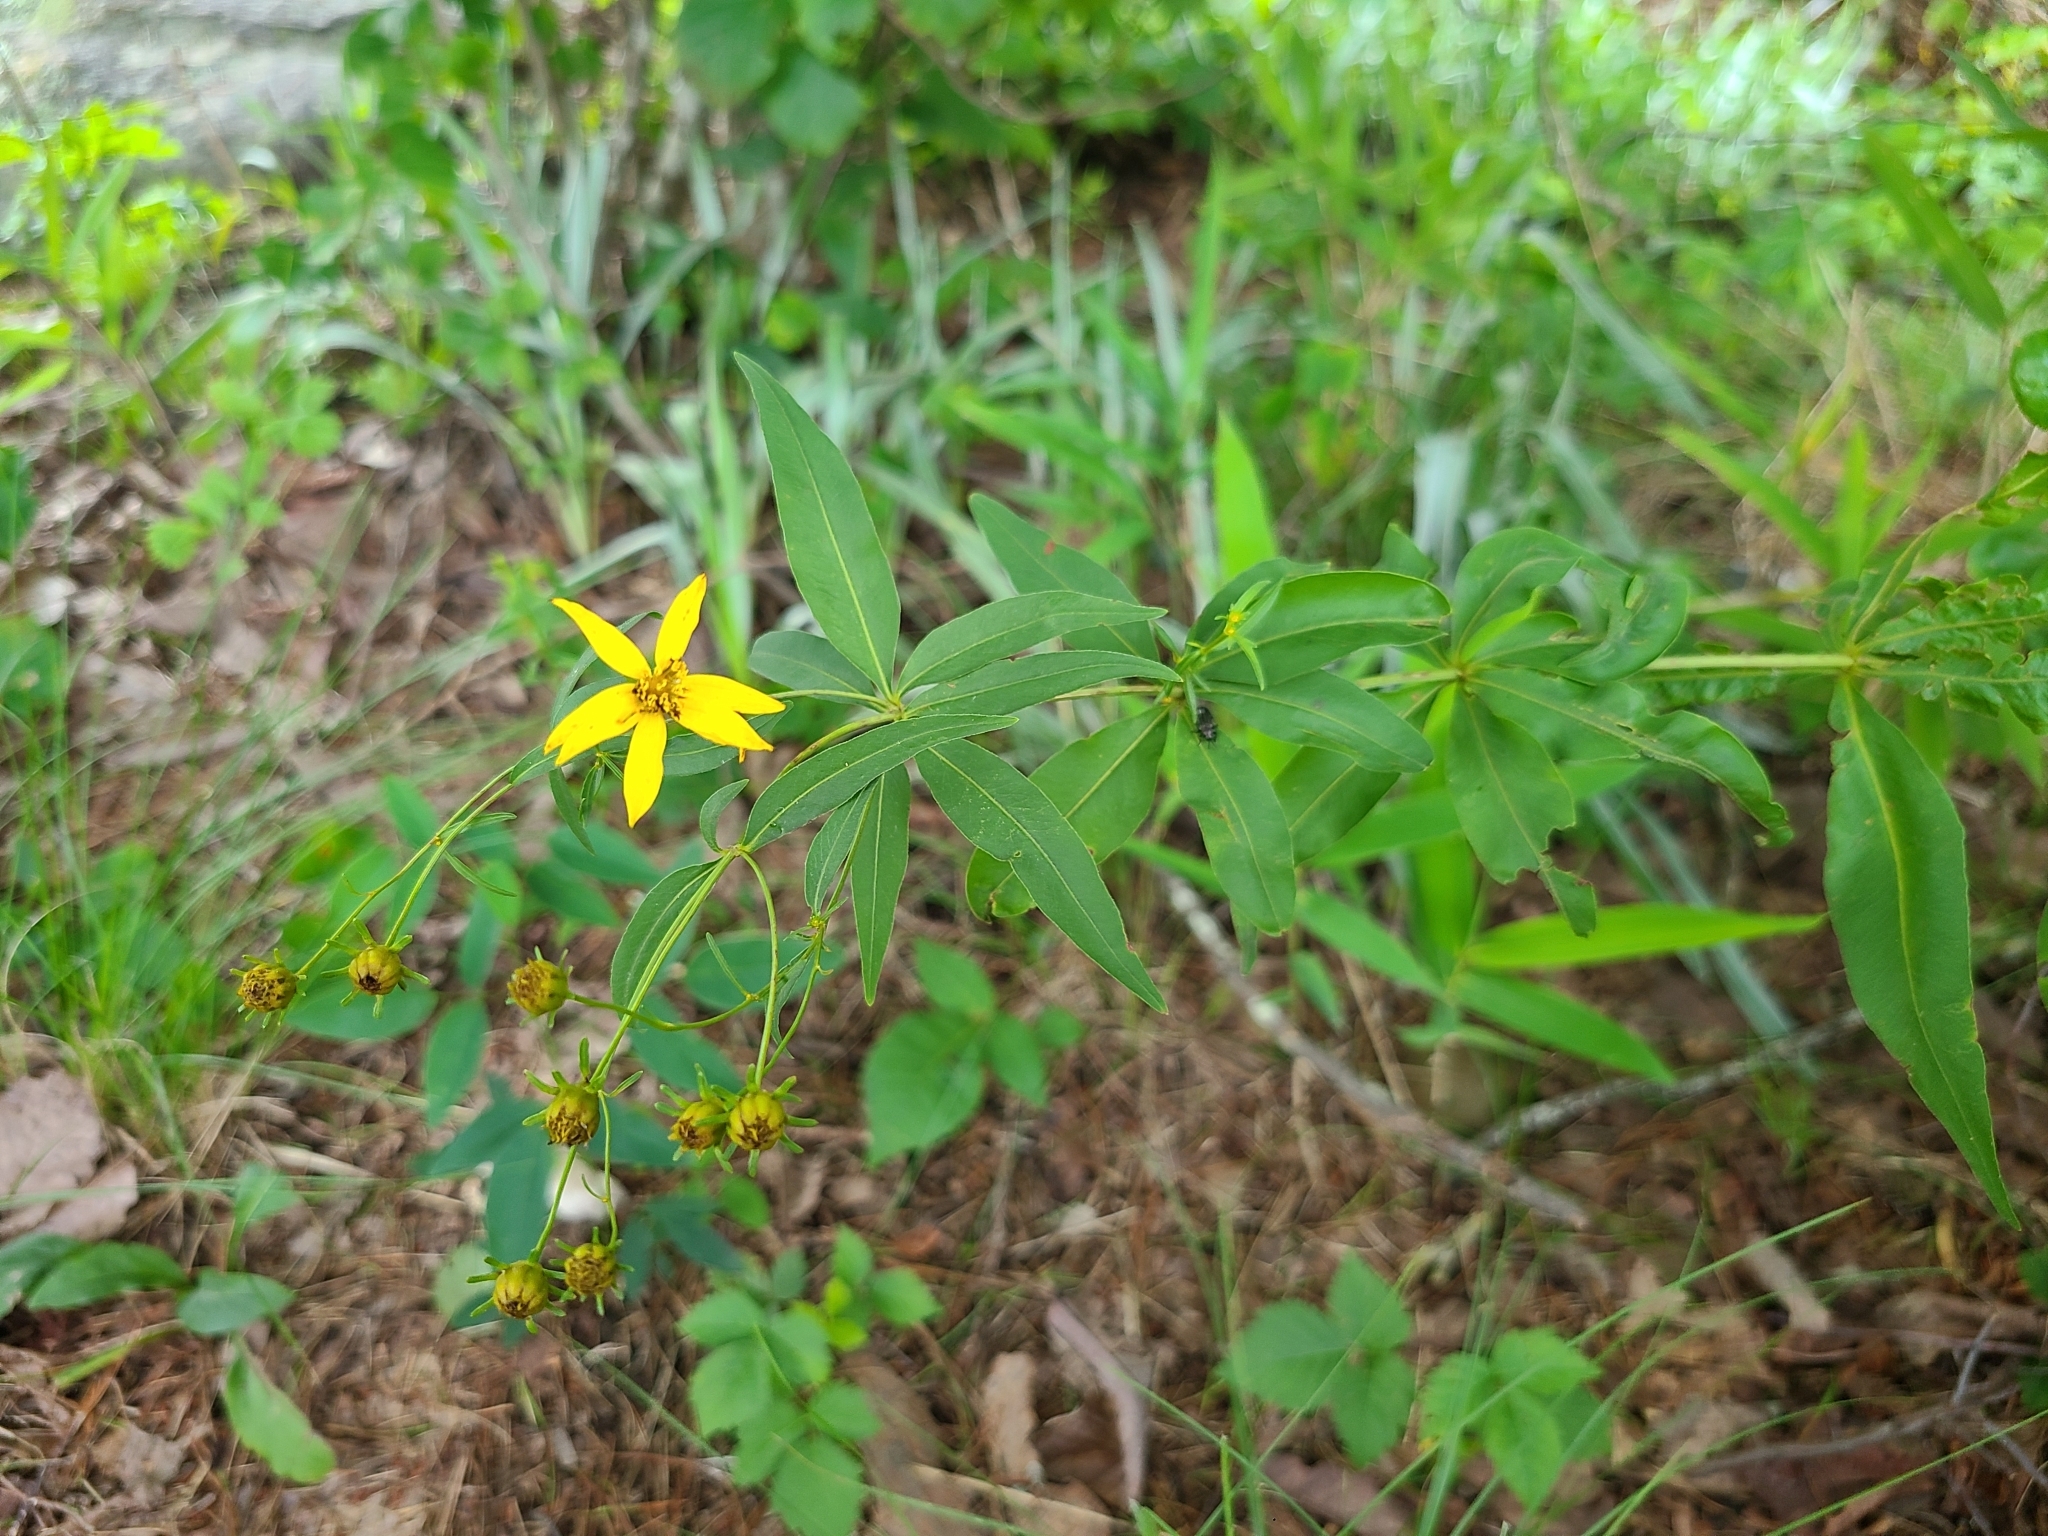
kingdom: Plantae
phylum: Tracheophyta
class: Magnoliopsida
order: Asterales
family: Asteraceae
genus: Coreopsis
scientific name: Coreopsis major
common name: Forest tickseed
